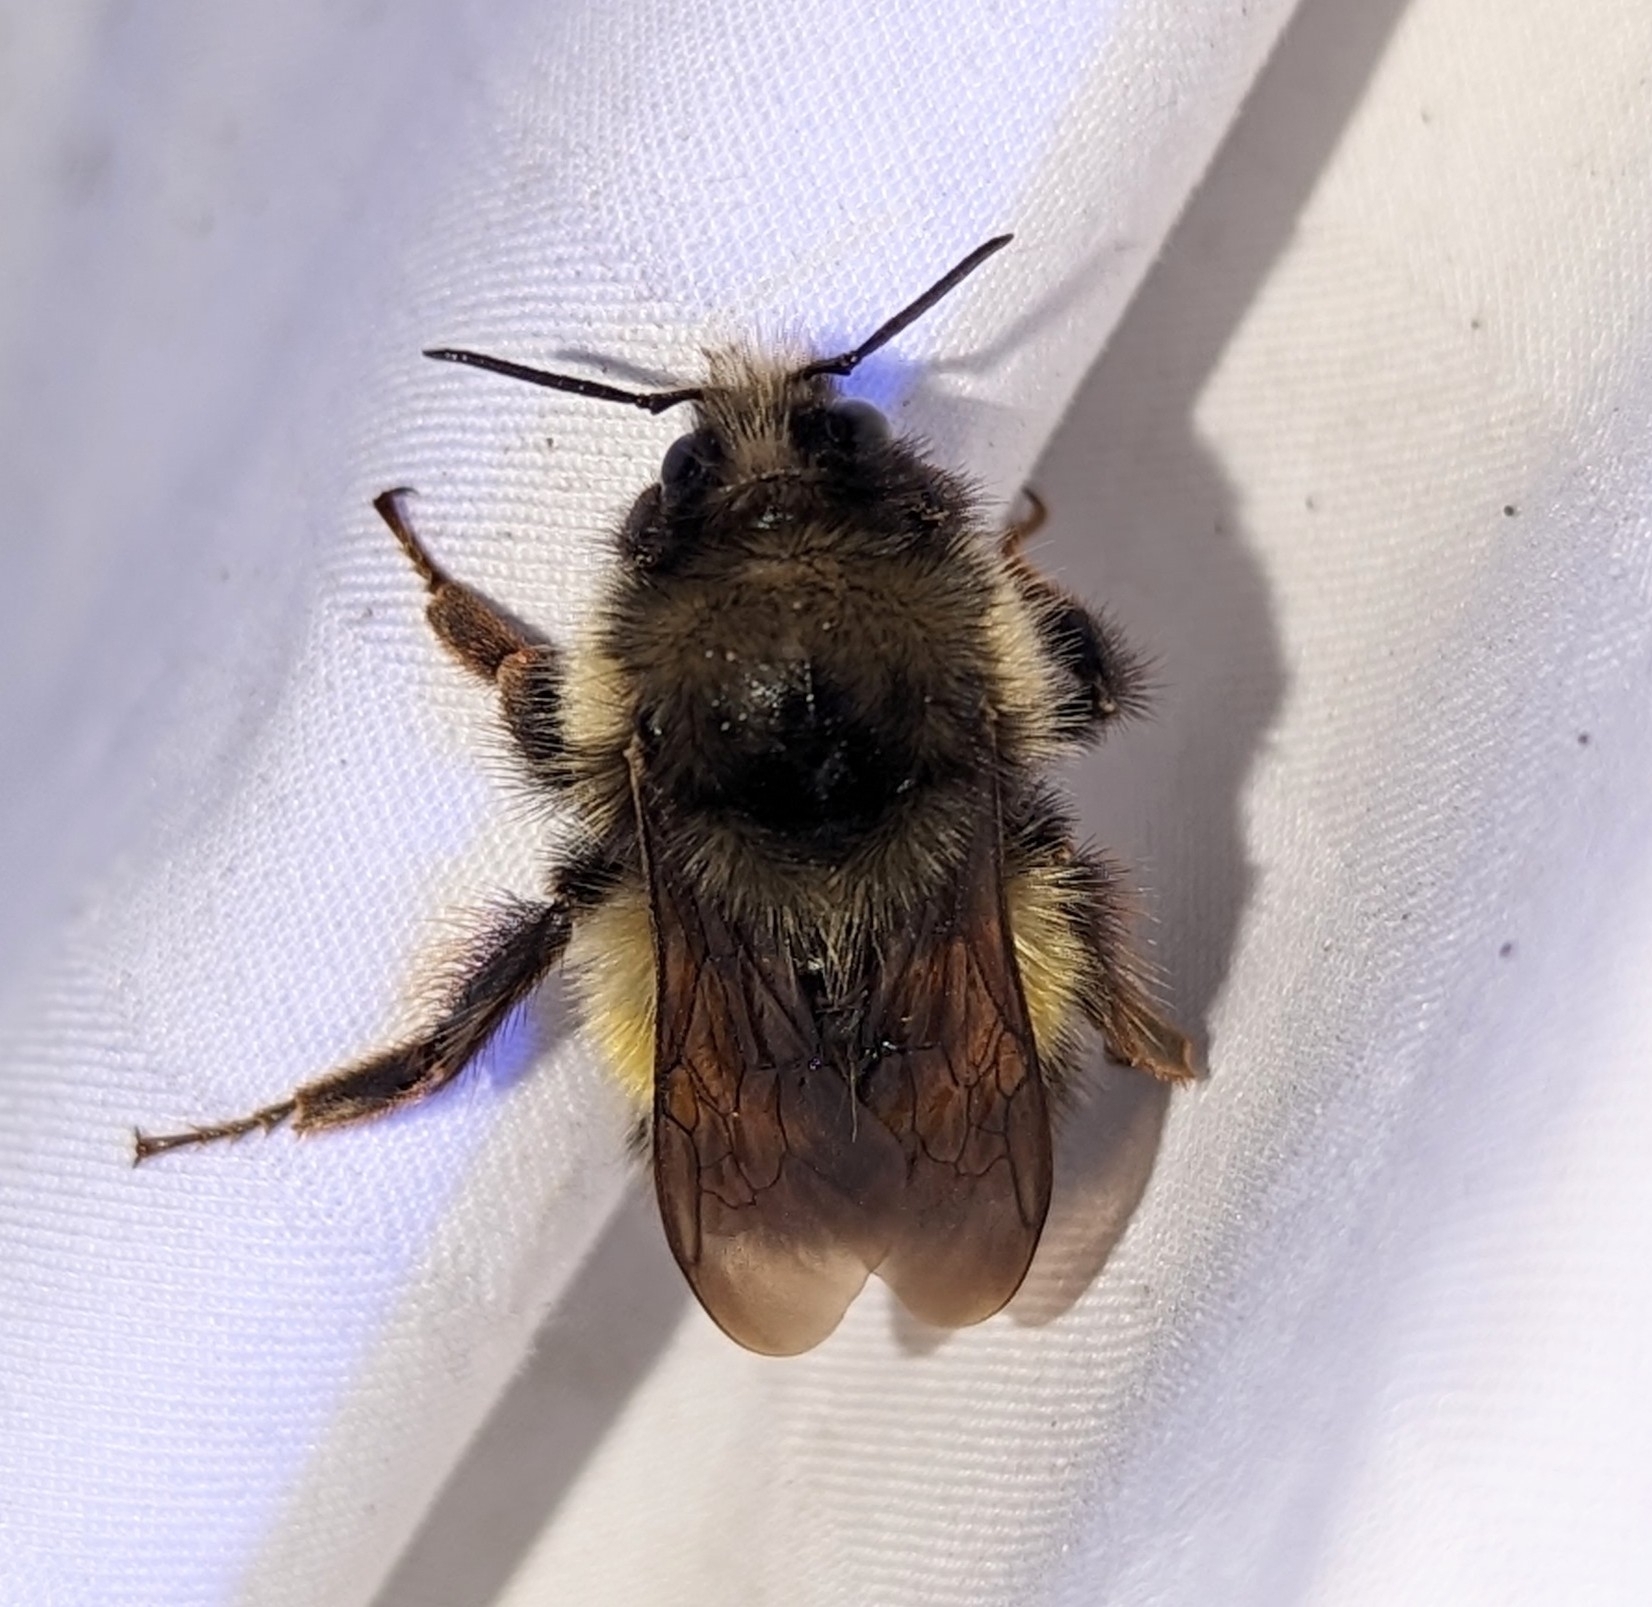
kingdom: Animalia
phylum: Arthropoda
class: Insecta
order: Hymenoptera
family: Apidae
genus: Bombus
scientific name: Bombus flavifrons
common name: Yellow head bumble bee
